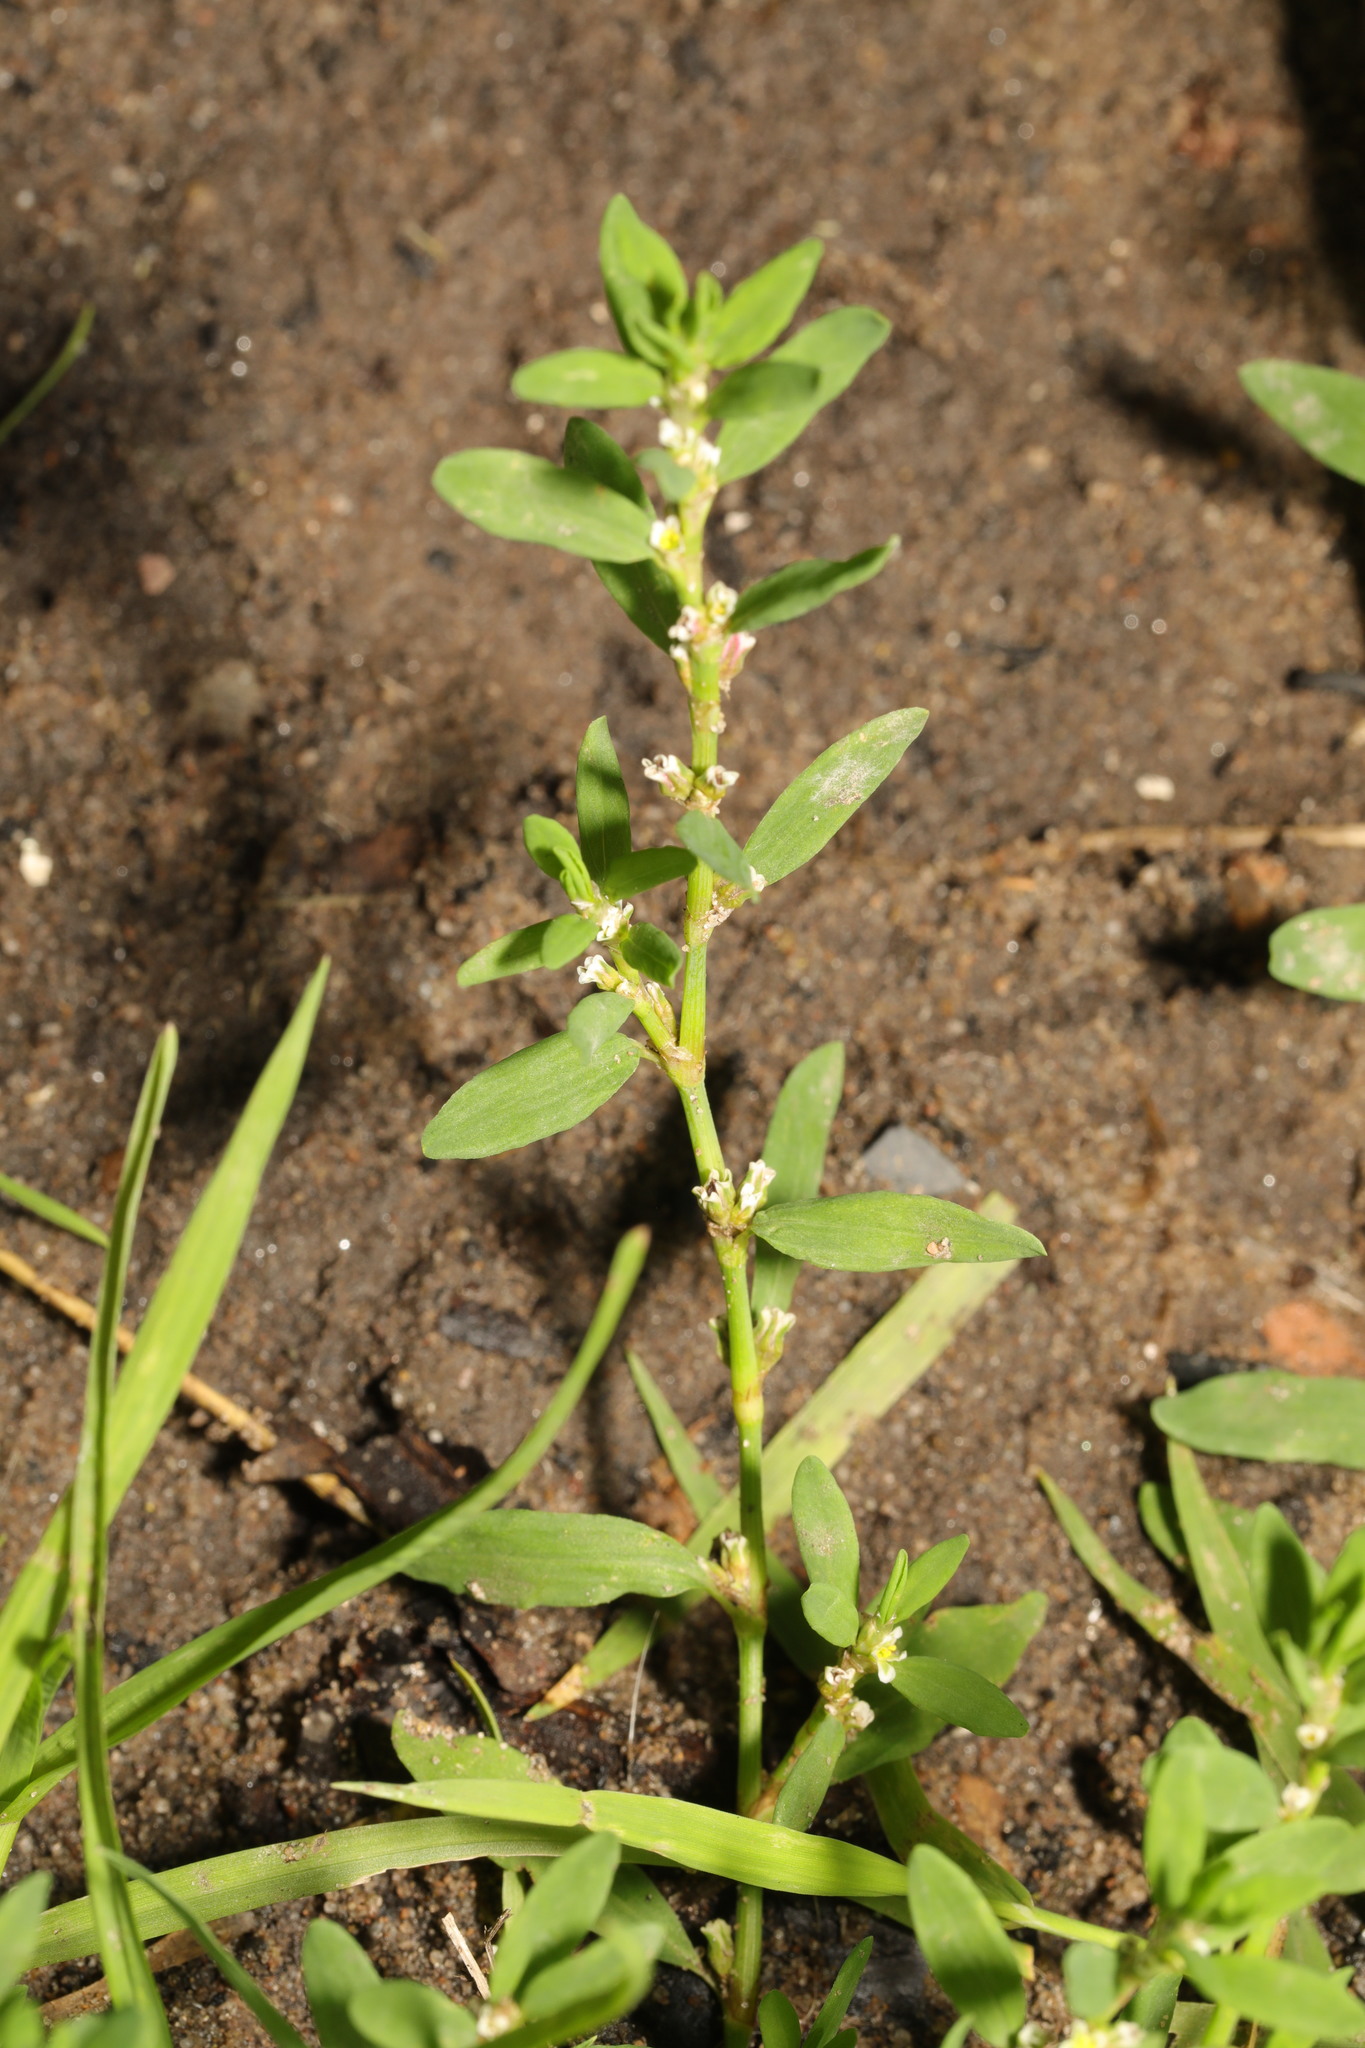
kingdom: Plantae
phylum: Tracheophyta
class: Magnoliopsida
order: Caryophyllales
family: Polygonaceae
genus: Polygonum
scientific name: Polygonum aviculare
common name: Prostrate knotweed
